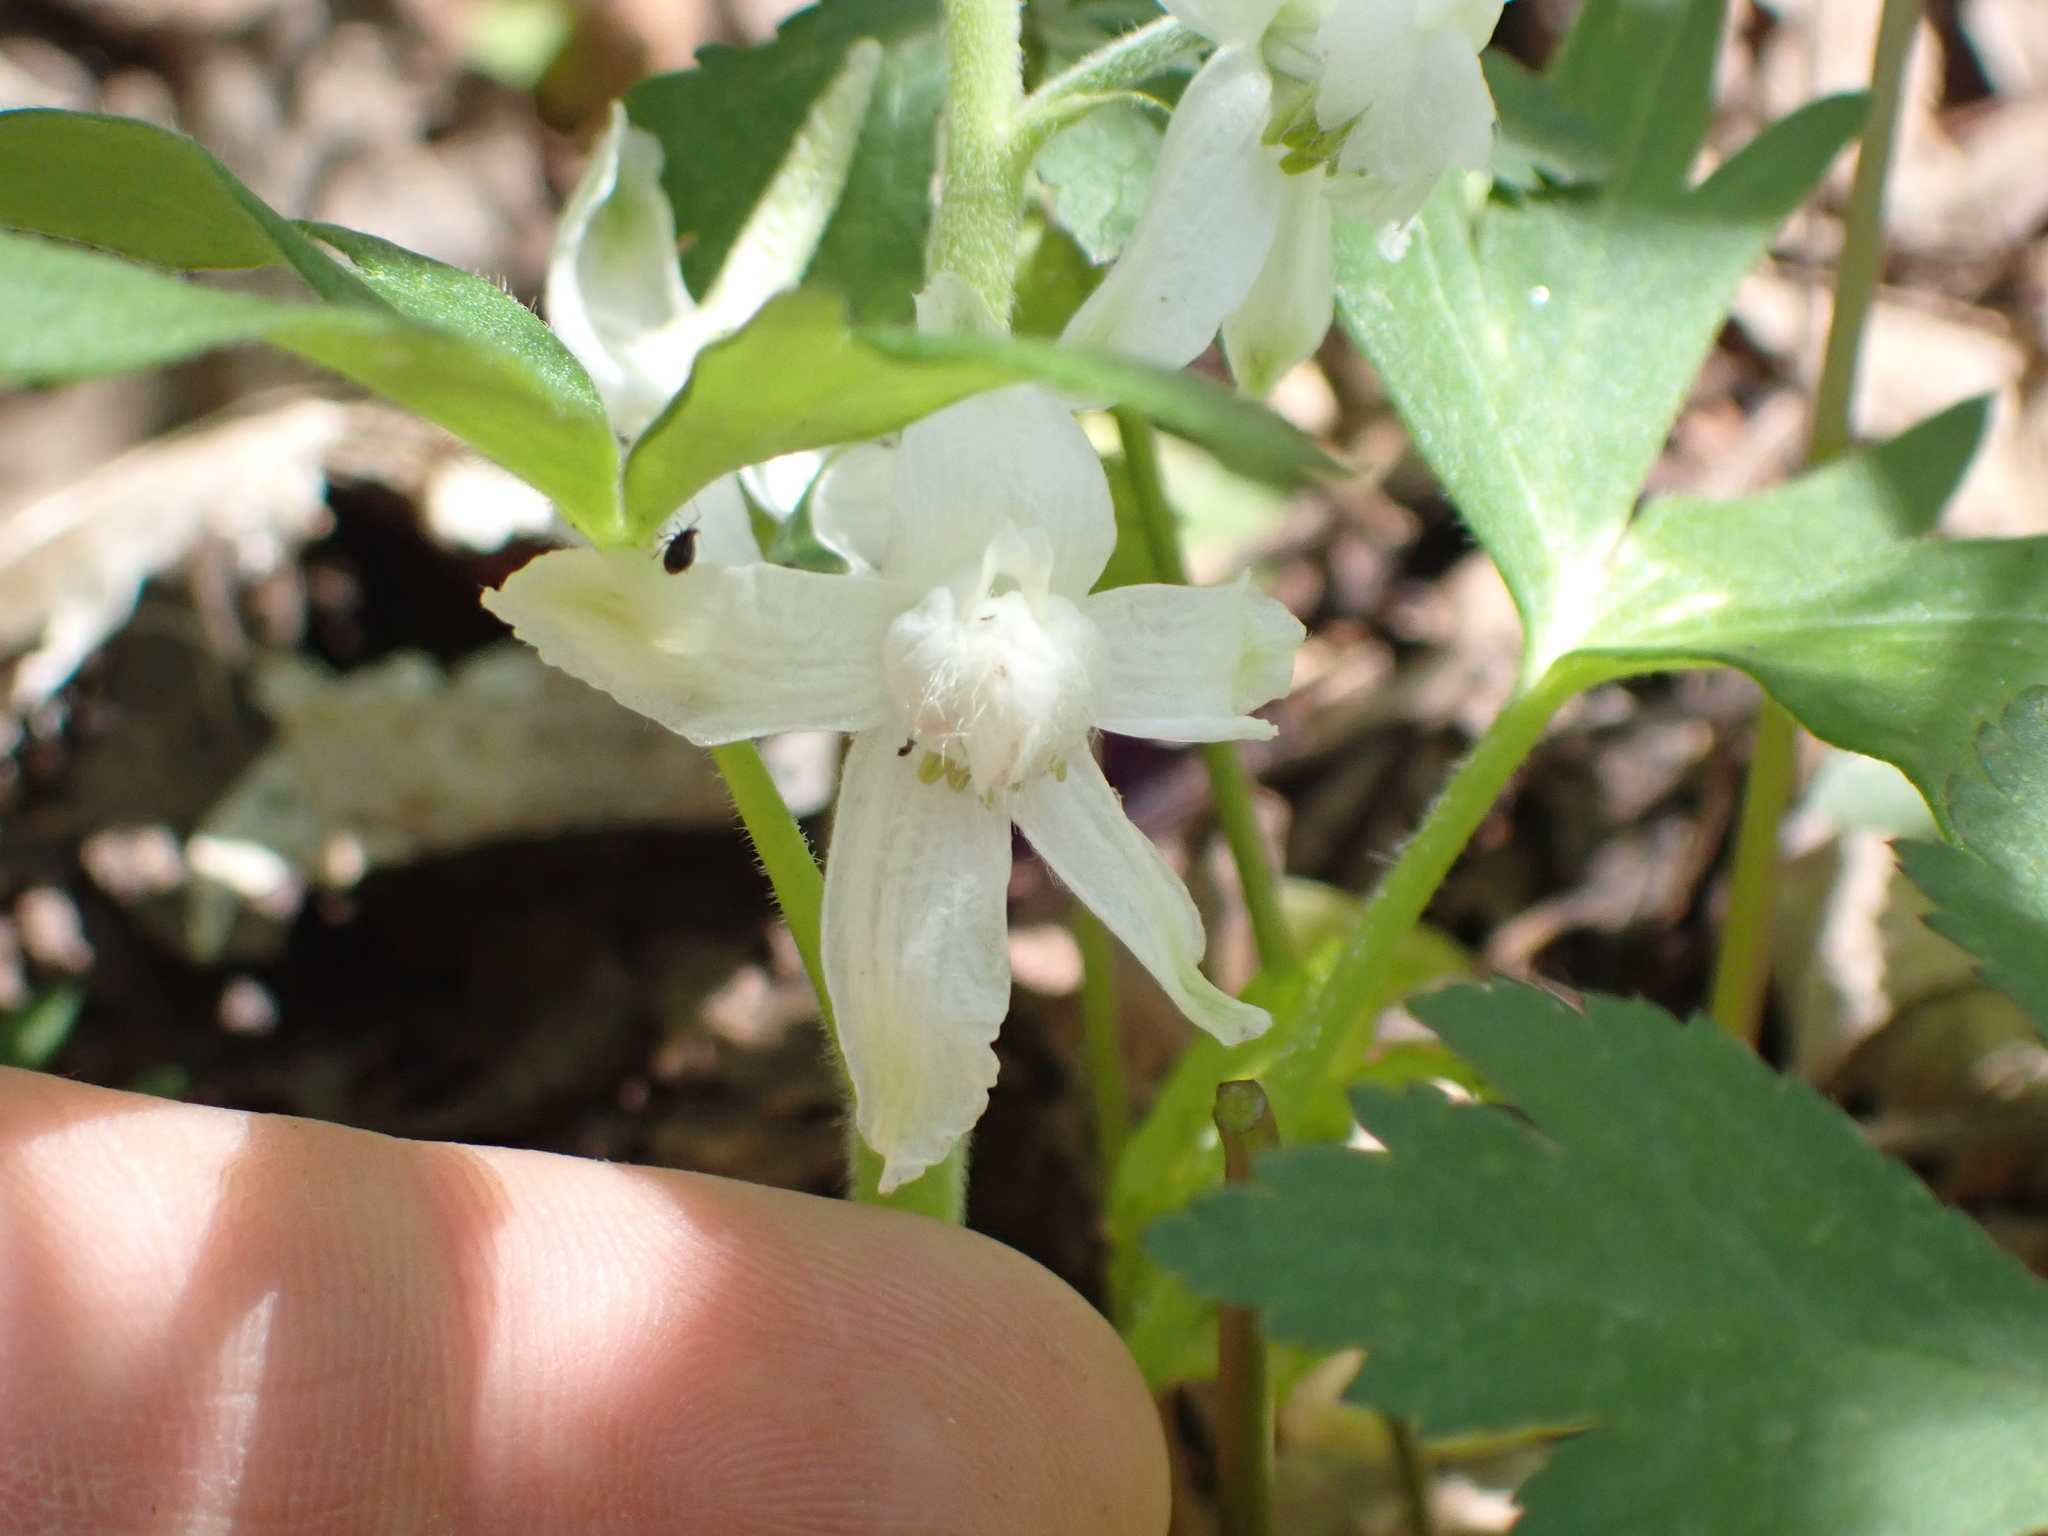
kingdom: Plantae
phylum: Tracheophyta
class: Magnoliopsida
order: Ranunculales
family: Ranunculaceae
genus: Delphinium
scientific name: Delphinium tricorne
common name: Dwarf larkspur
